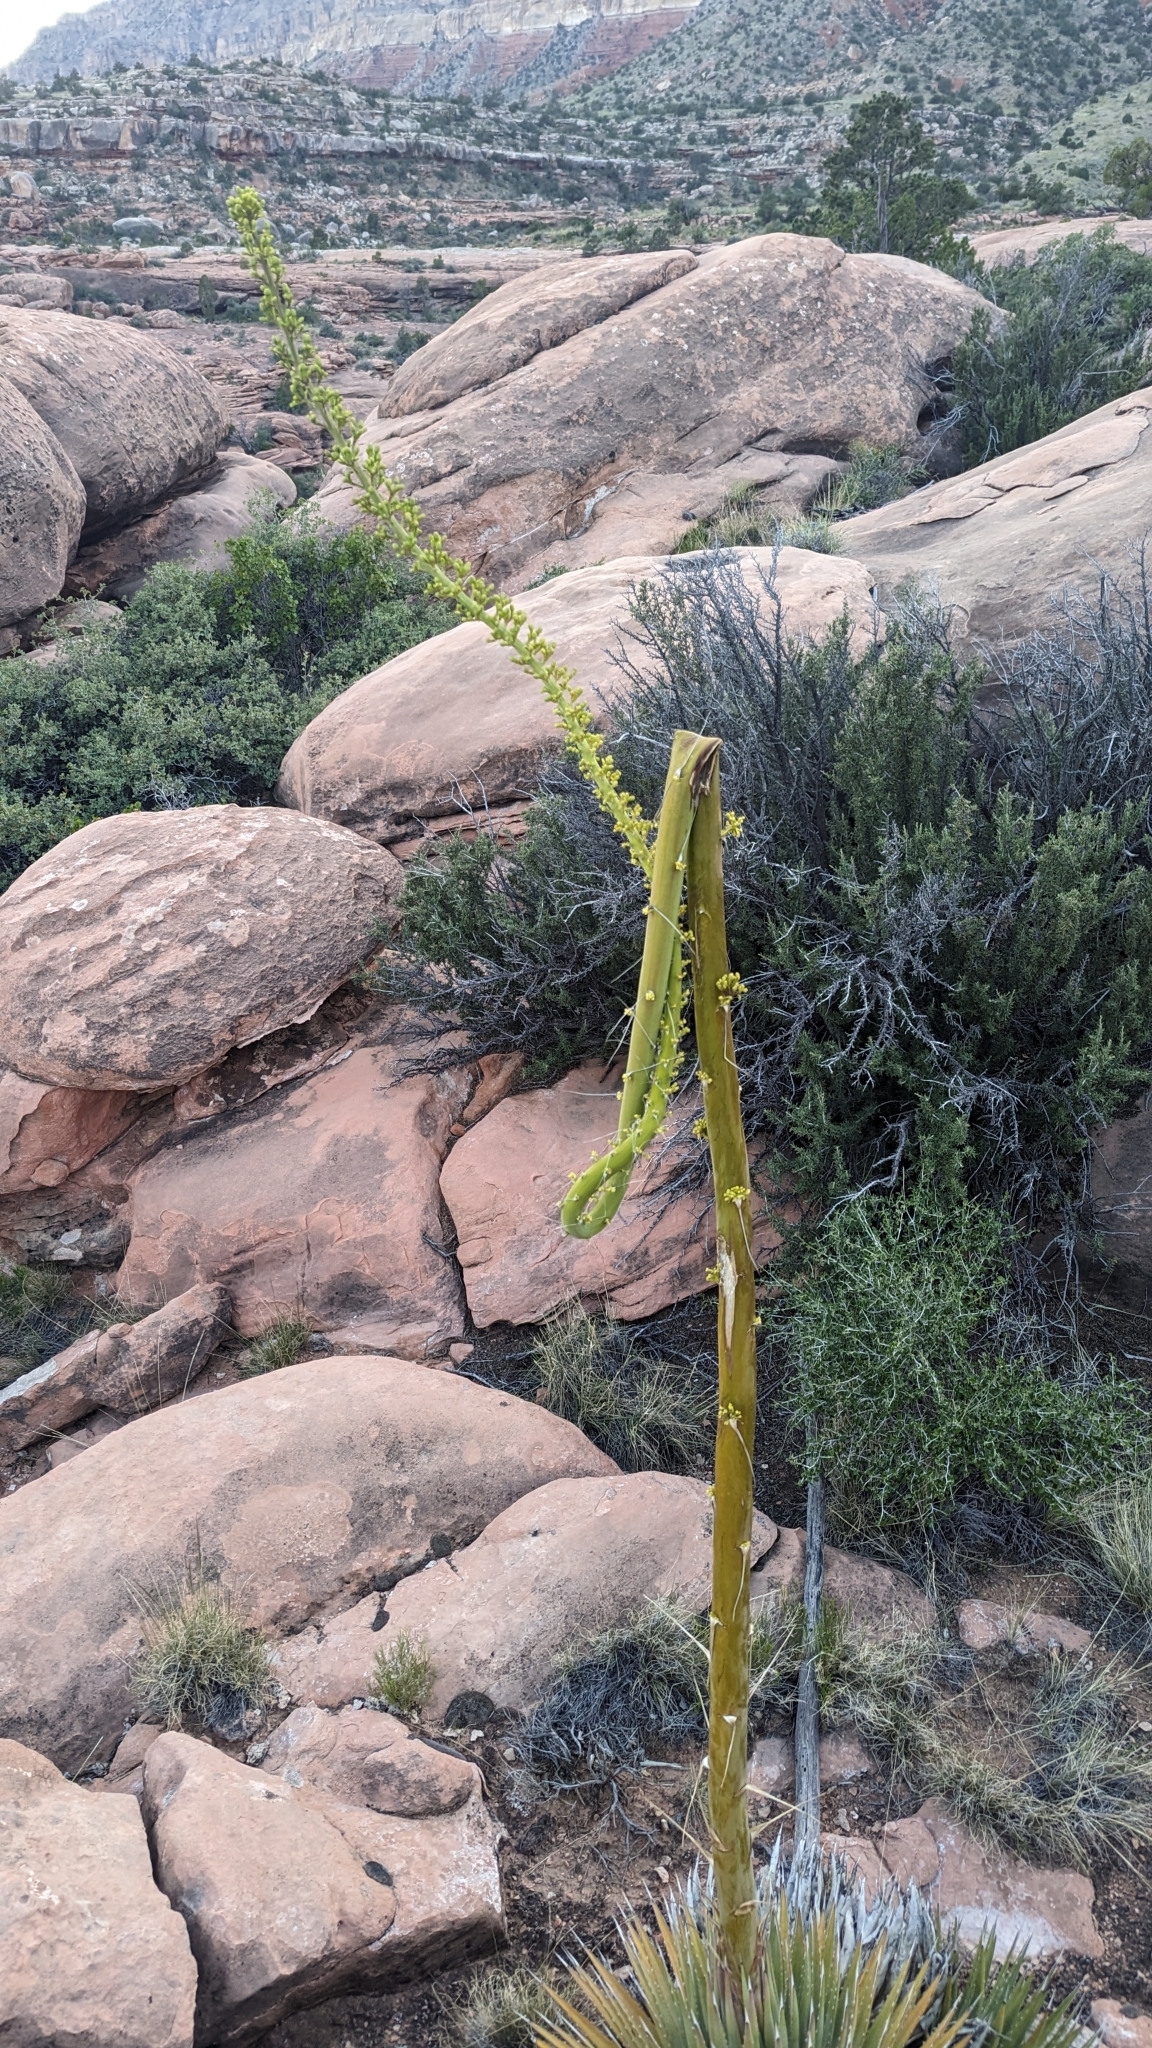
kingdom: Plantae
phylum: Tracheophyta
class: Liliopsida
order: Asparagales
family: Asparagaceae
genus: Agave
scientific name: Agave utahensis
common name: Utah agave
